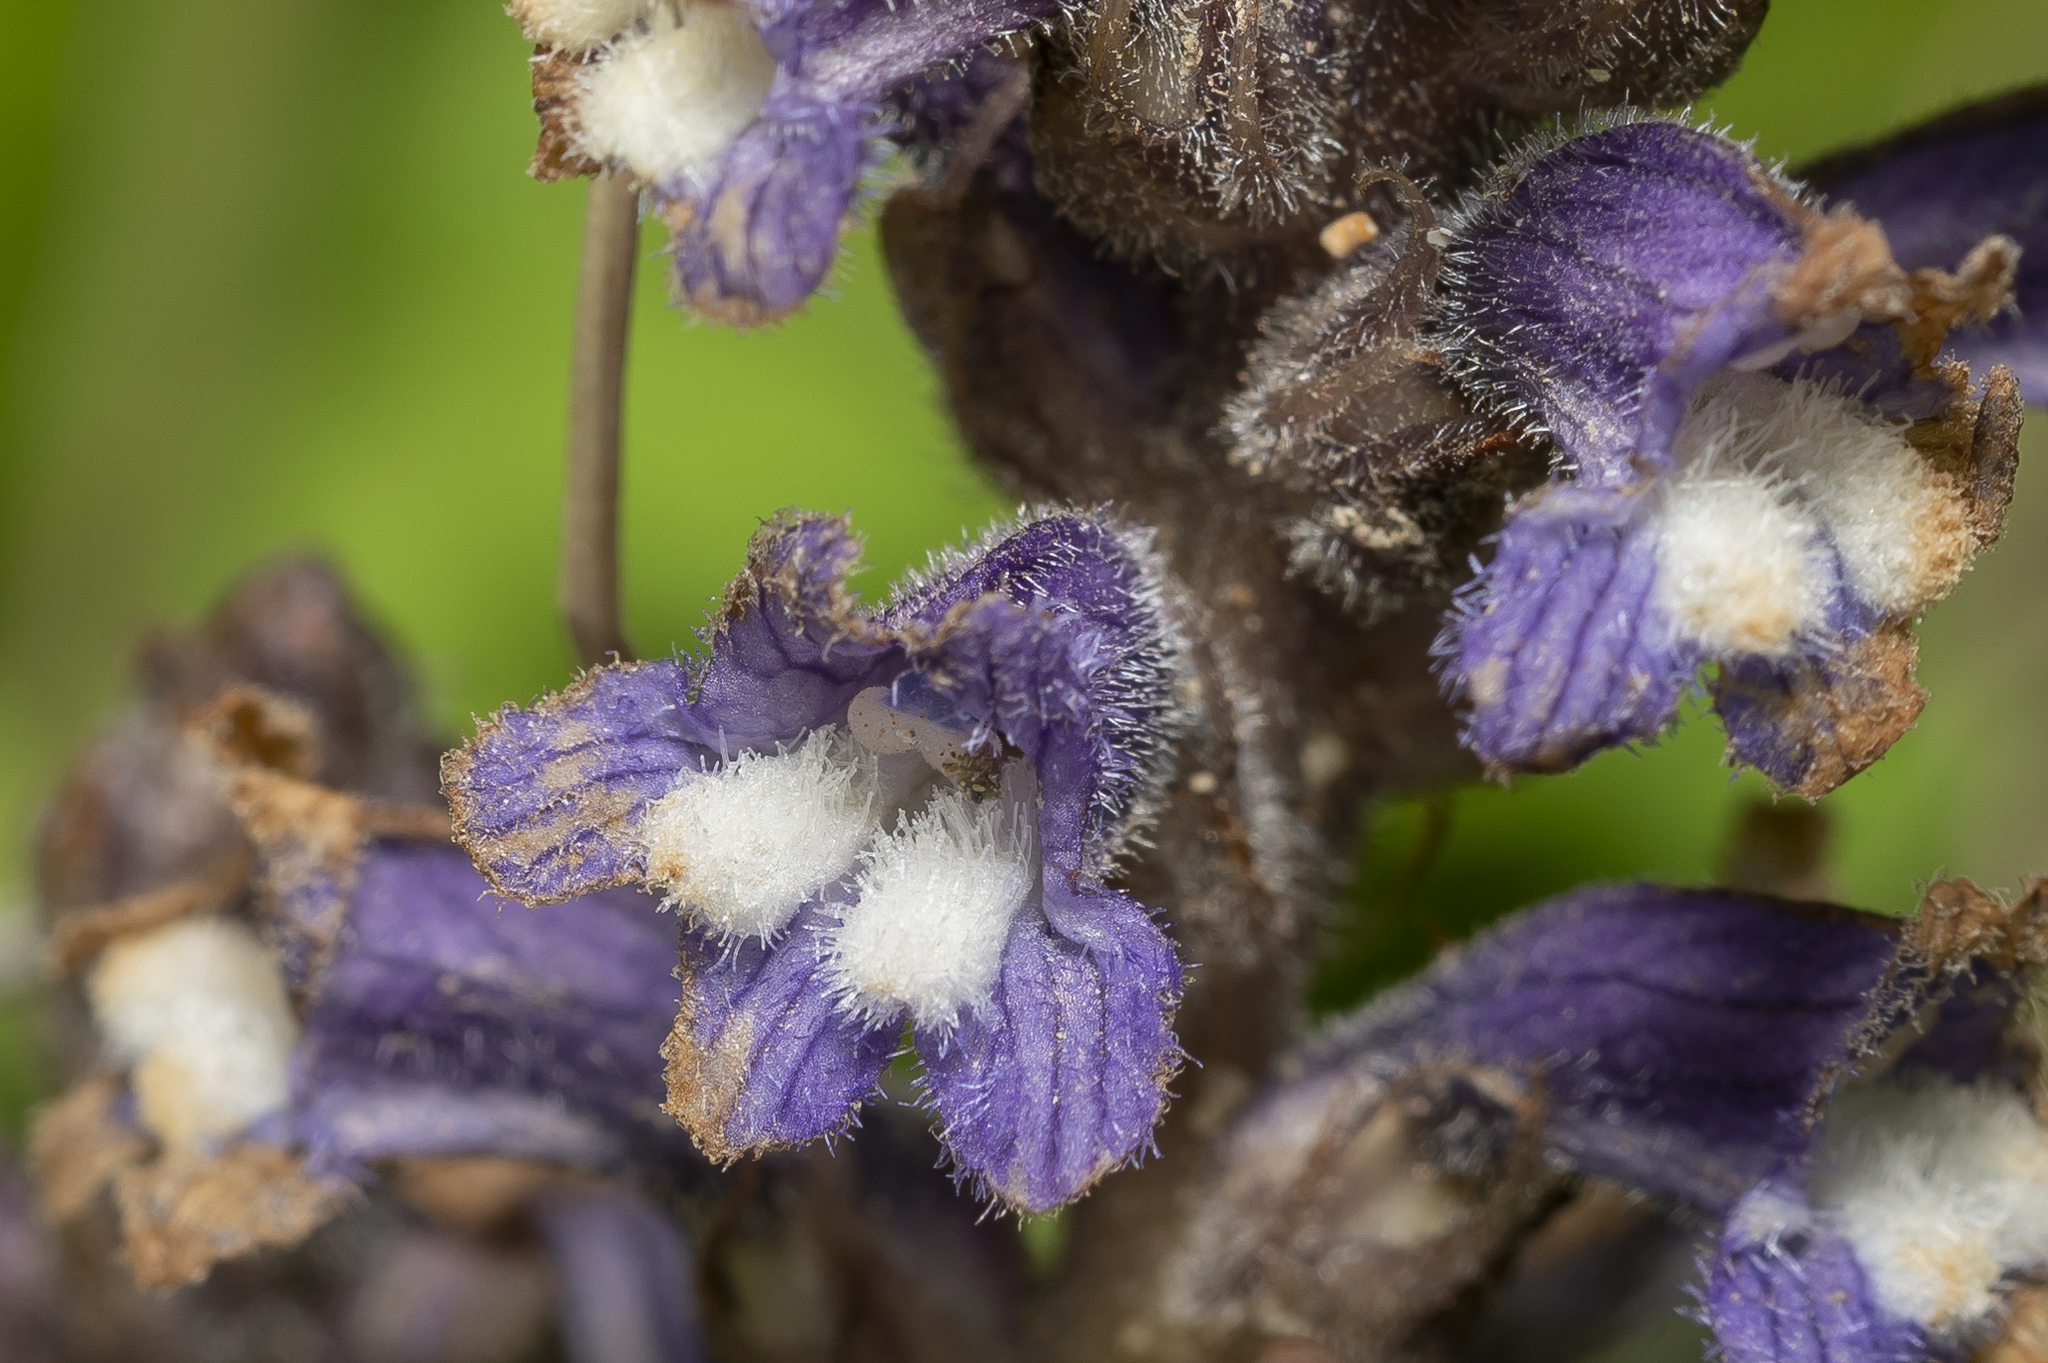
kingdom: Plantae
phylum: Tracheophyta
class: Magnoliopsida
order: Lamiales
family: Orobanchaceae
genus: Phelipanche
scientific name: Phelipanche mutelii
